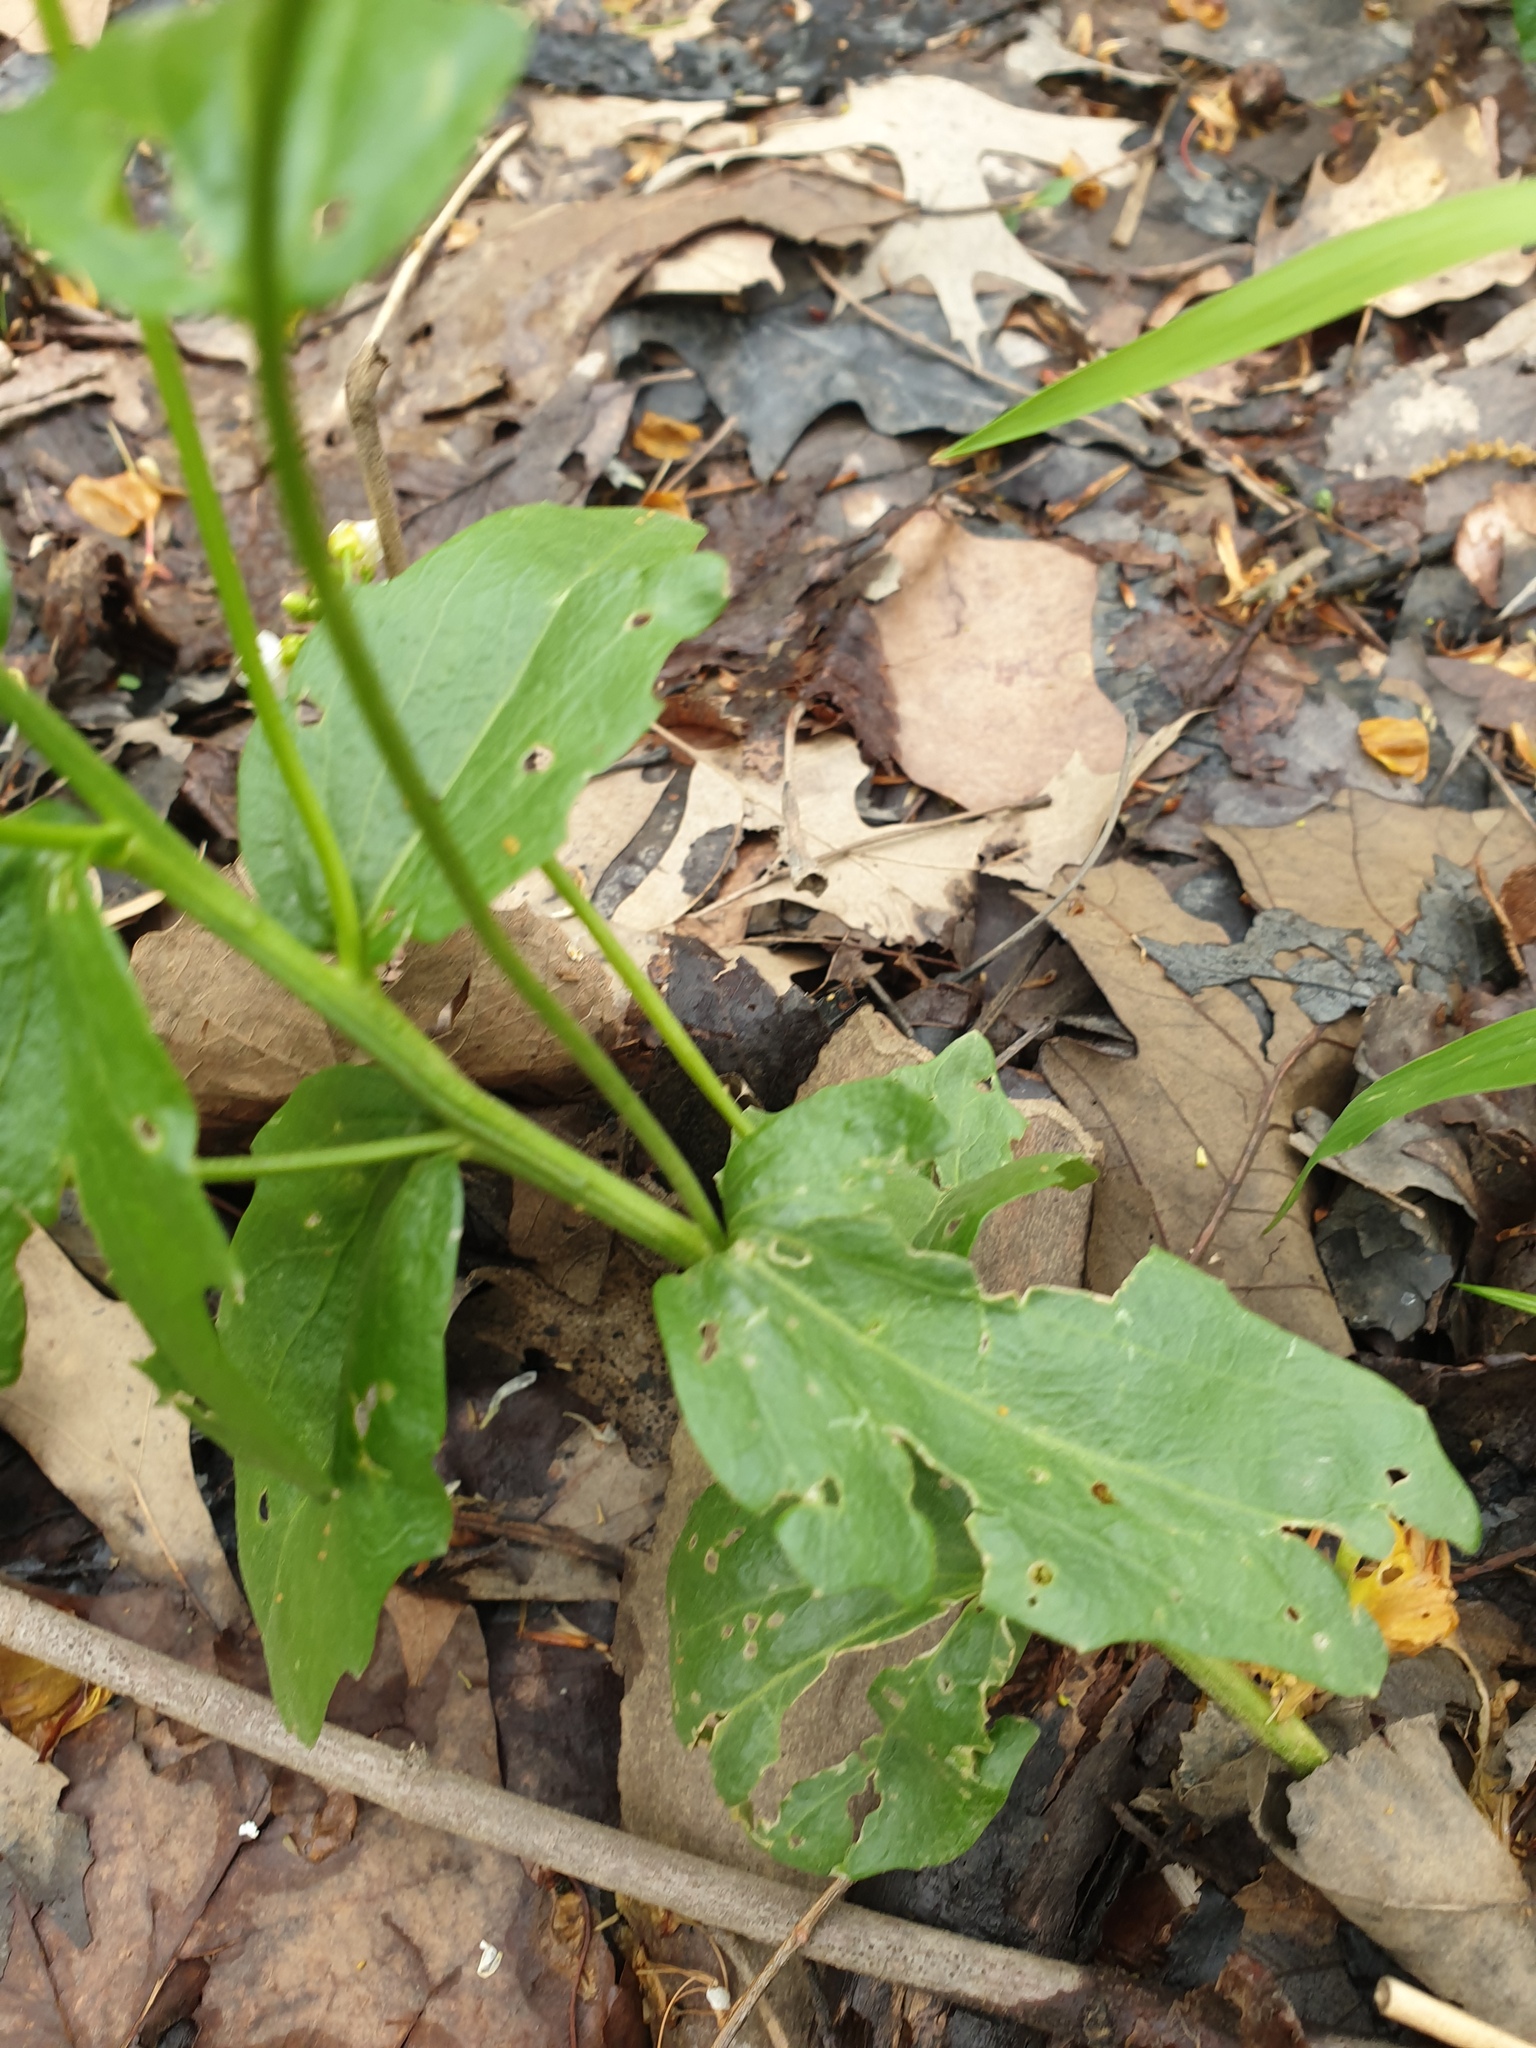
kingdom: Plantae
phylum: Tracheophyta
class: Magnoliopsida
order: Brassicales
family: Brassicaceae
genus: Cardamine
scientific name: Cardamine bulbosa
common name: Spring cress
